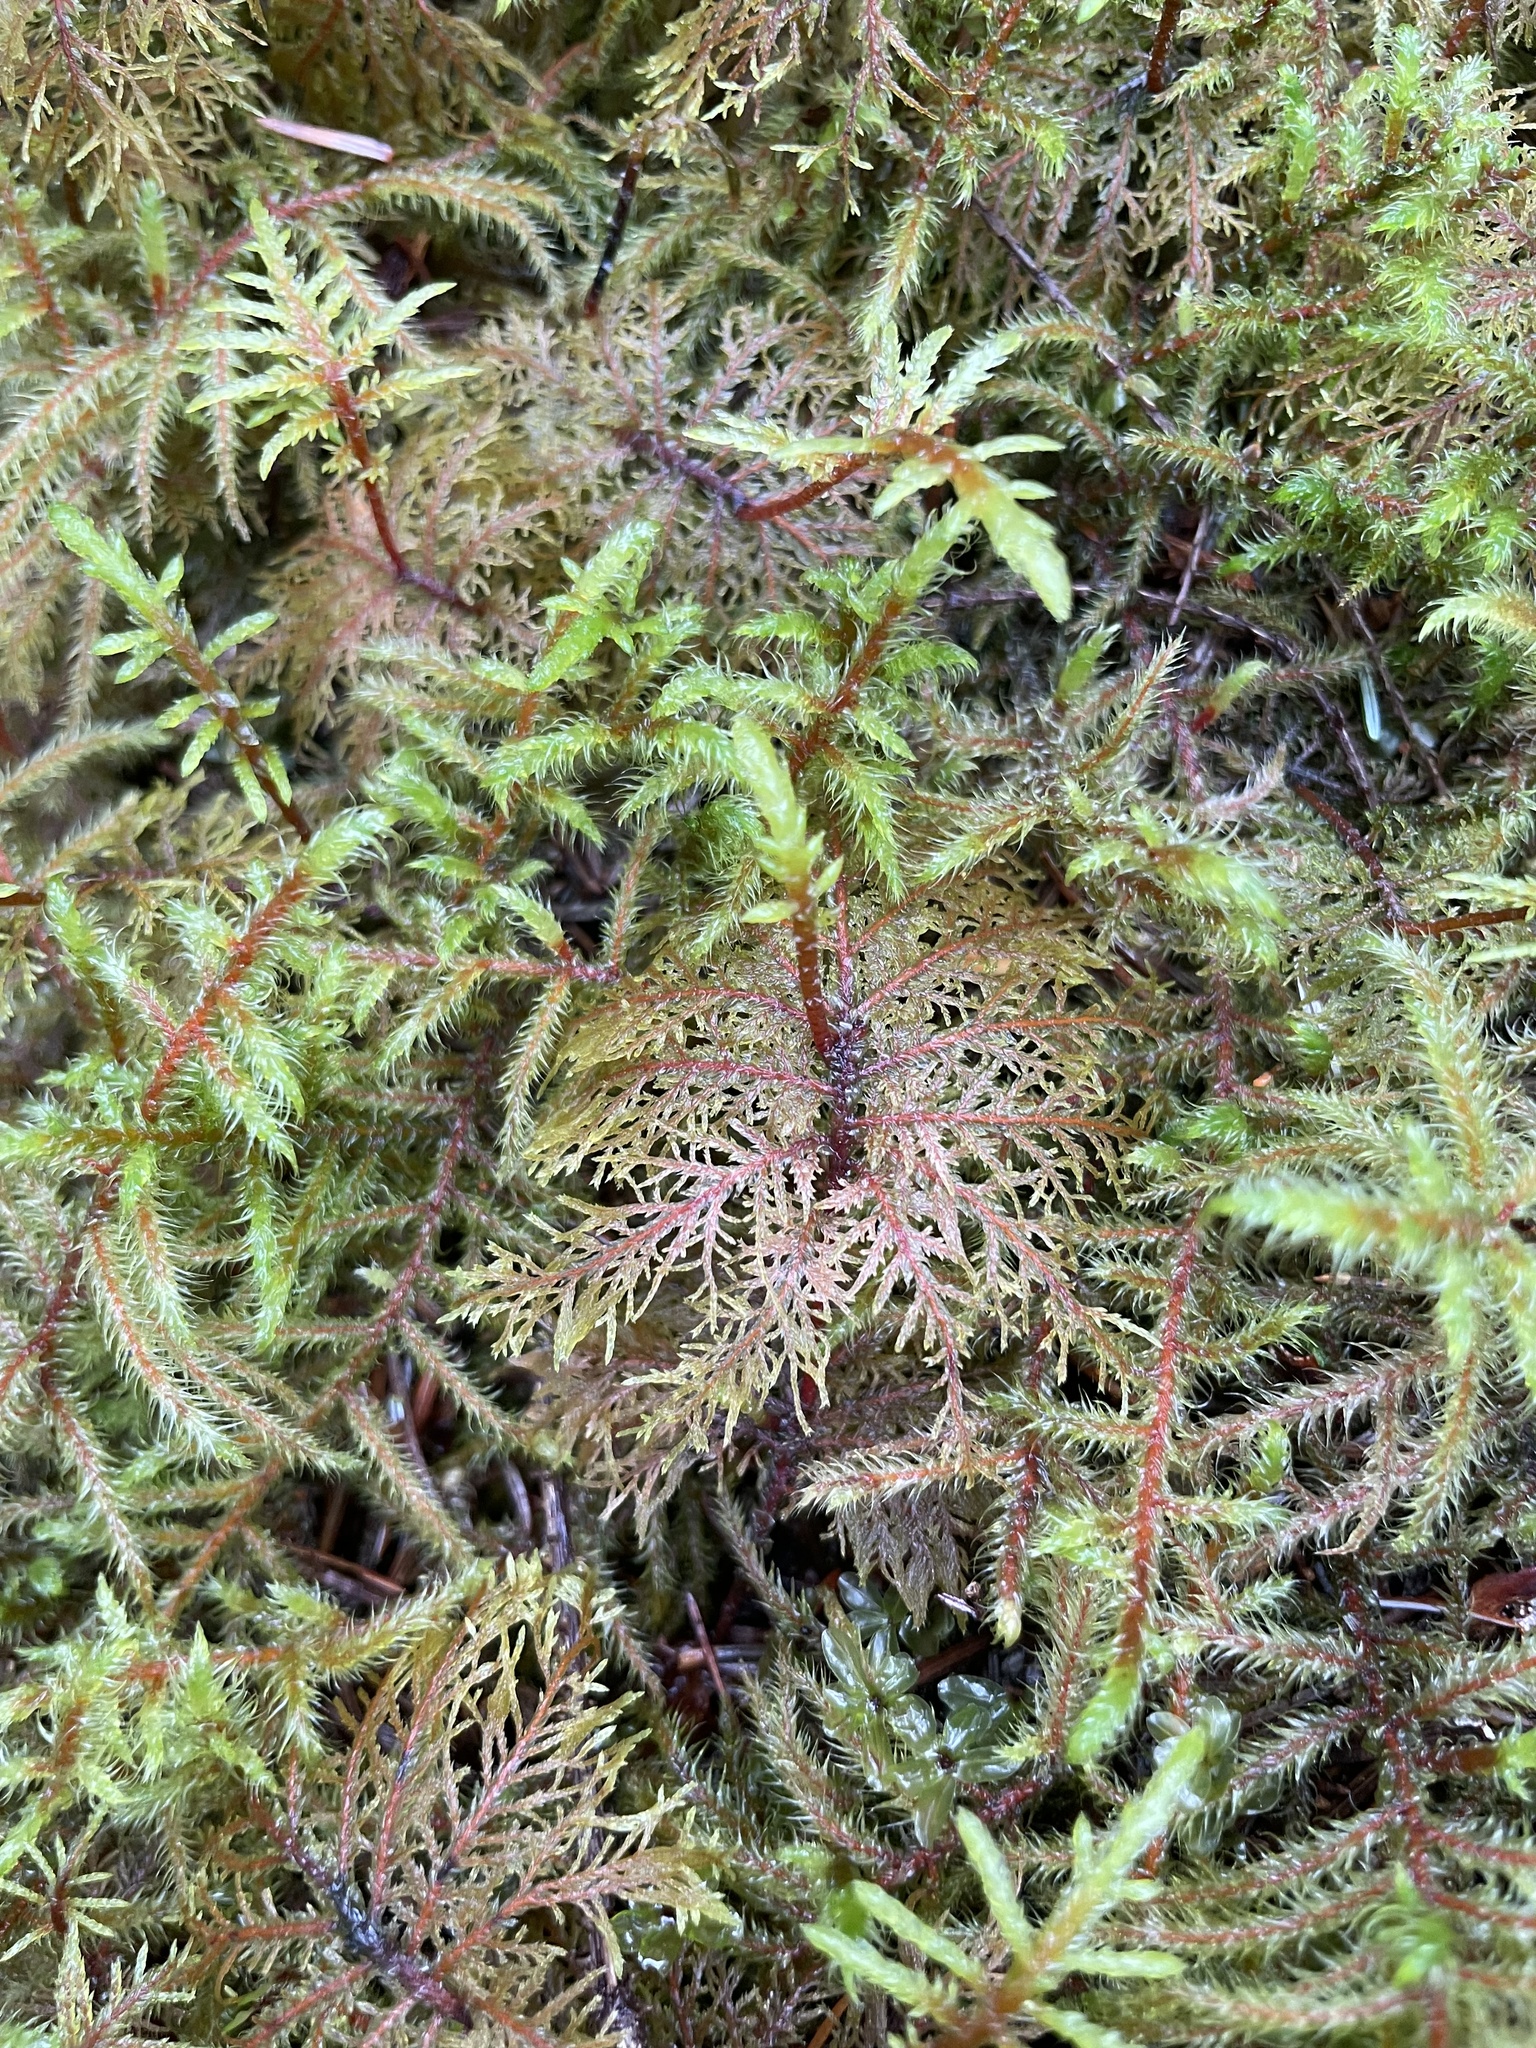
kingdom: Plantae
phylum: Bryophyta
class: Bryopsida
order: Hypnales
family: Hylocomiaceae
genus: Hylocomium
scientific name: Hylocomium splendens
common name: Stairstep moss
